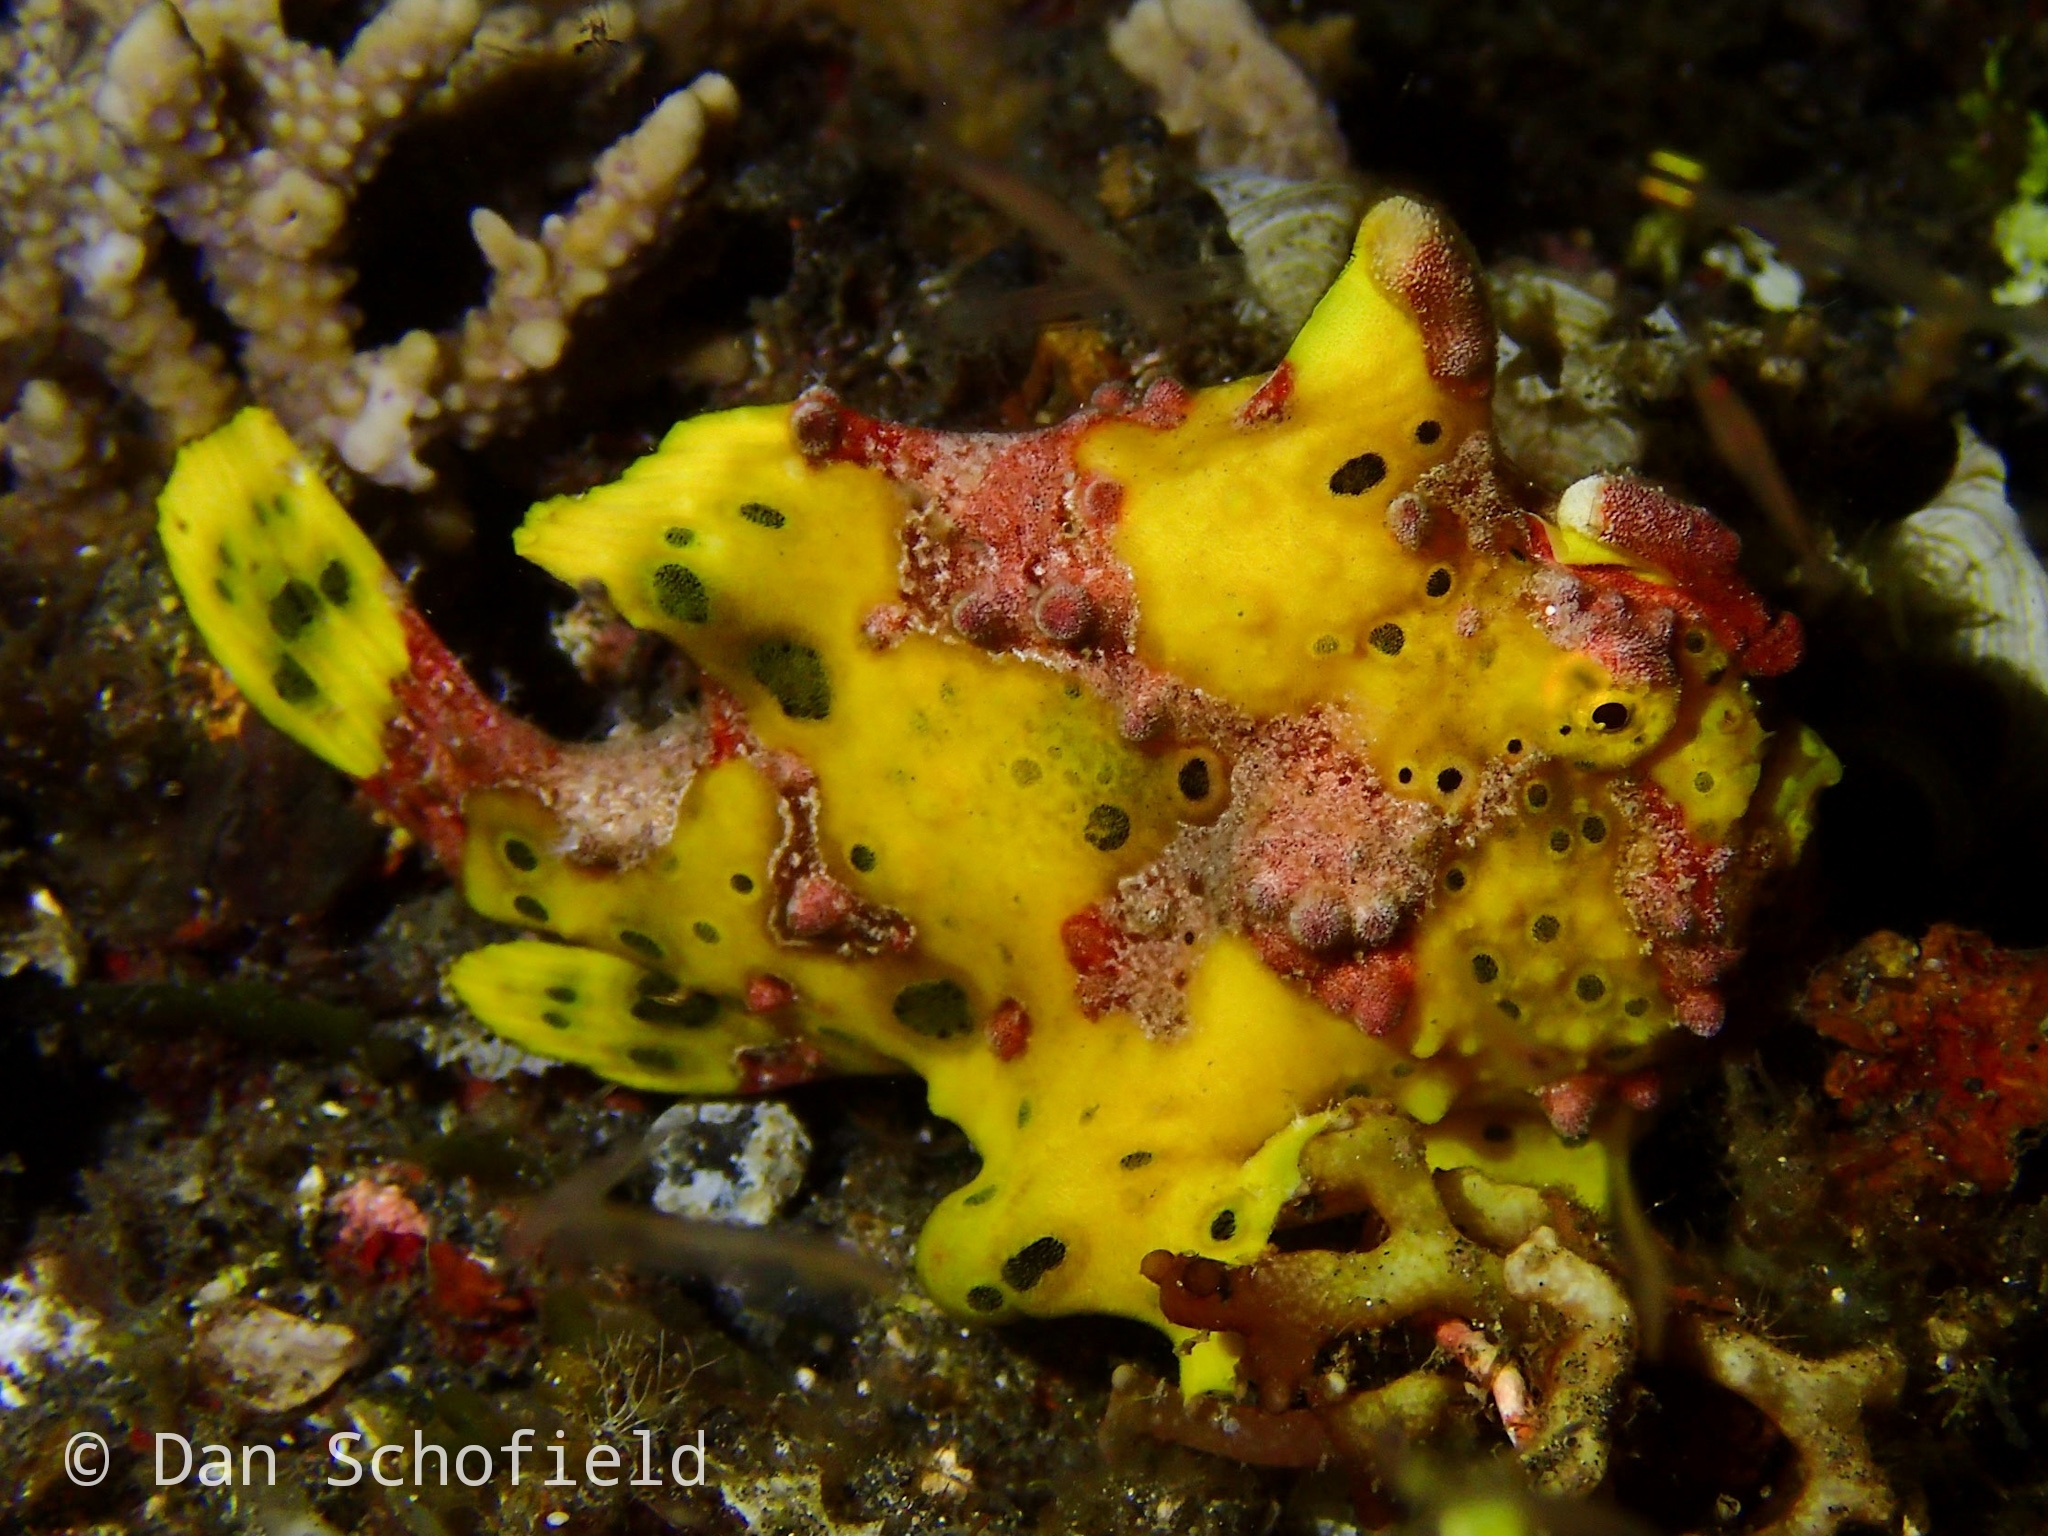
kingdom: Animalia
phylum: Chordata
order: Lophiiformes
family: Antennariidae
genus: Antennarius
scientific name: Antennarius maculatus
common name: Warty frogfish
